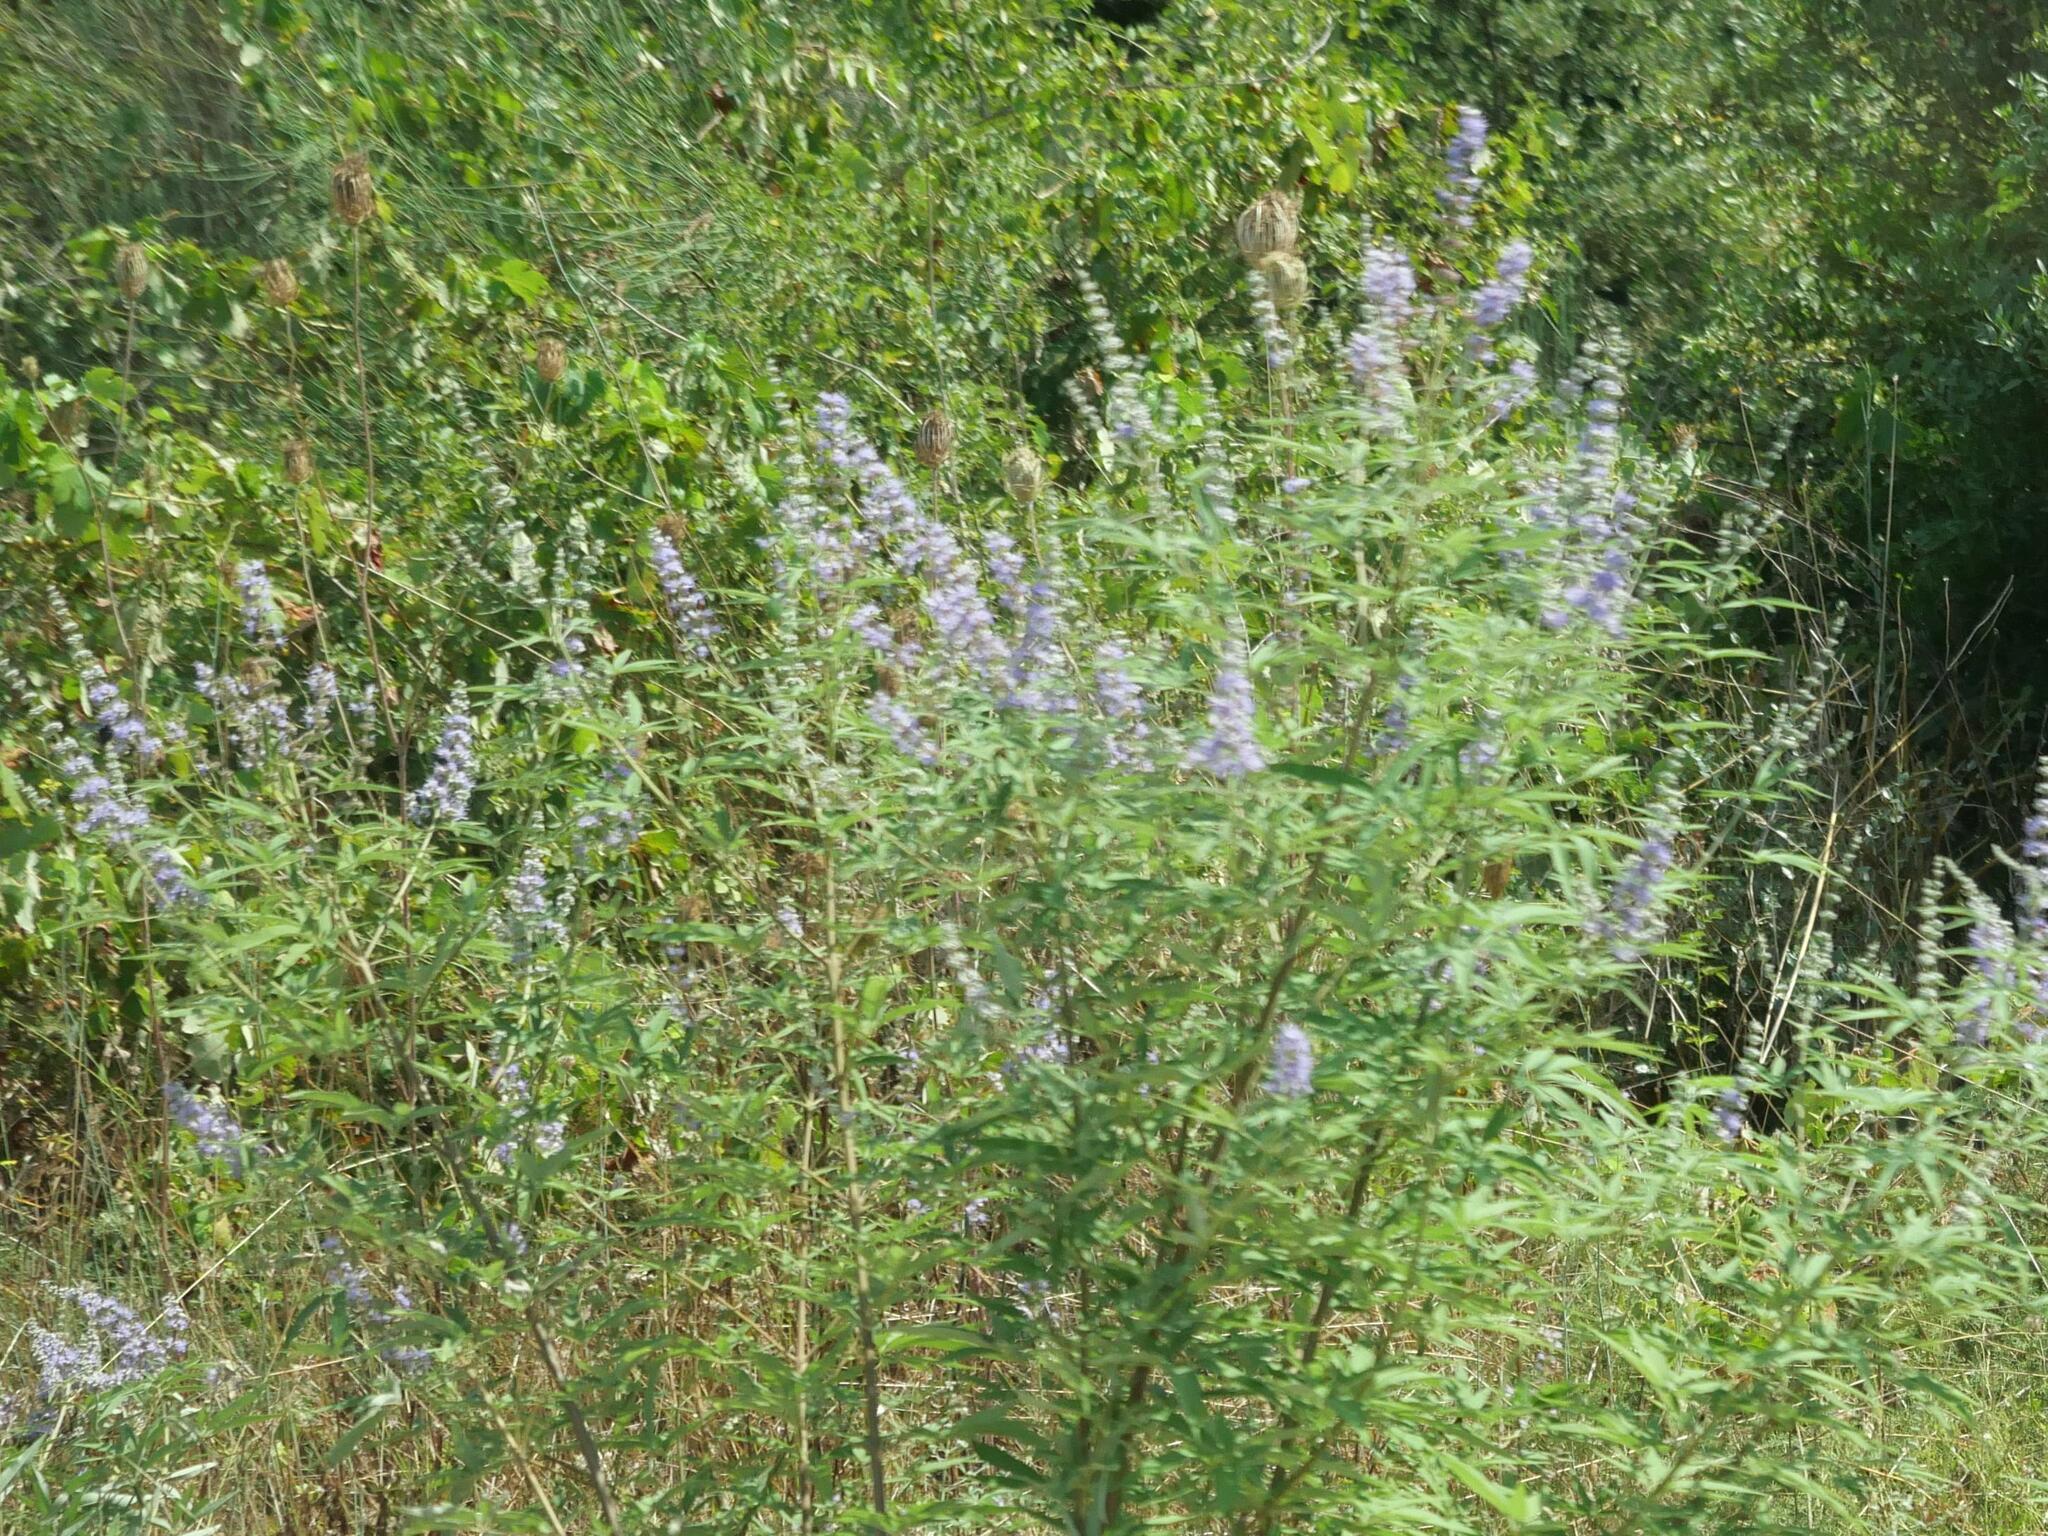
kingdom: Plantae
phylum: Tracheophyta
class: Magnoliopsida
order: Lamiales
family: Lamiaceae
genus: Vitex
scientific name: Vitex agnus-castus
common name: Chasteberry
